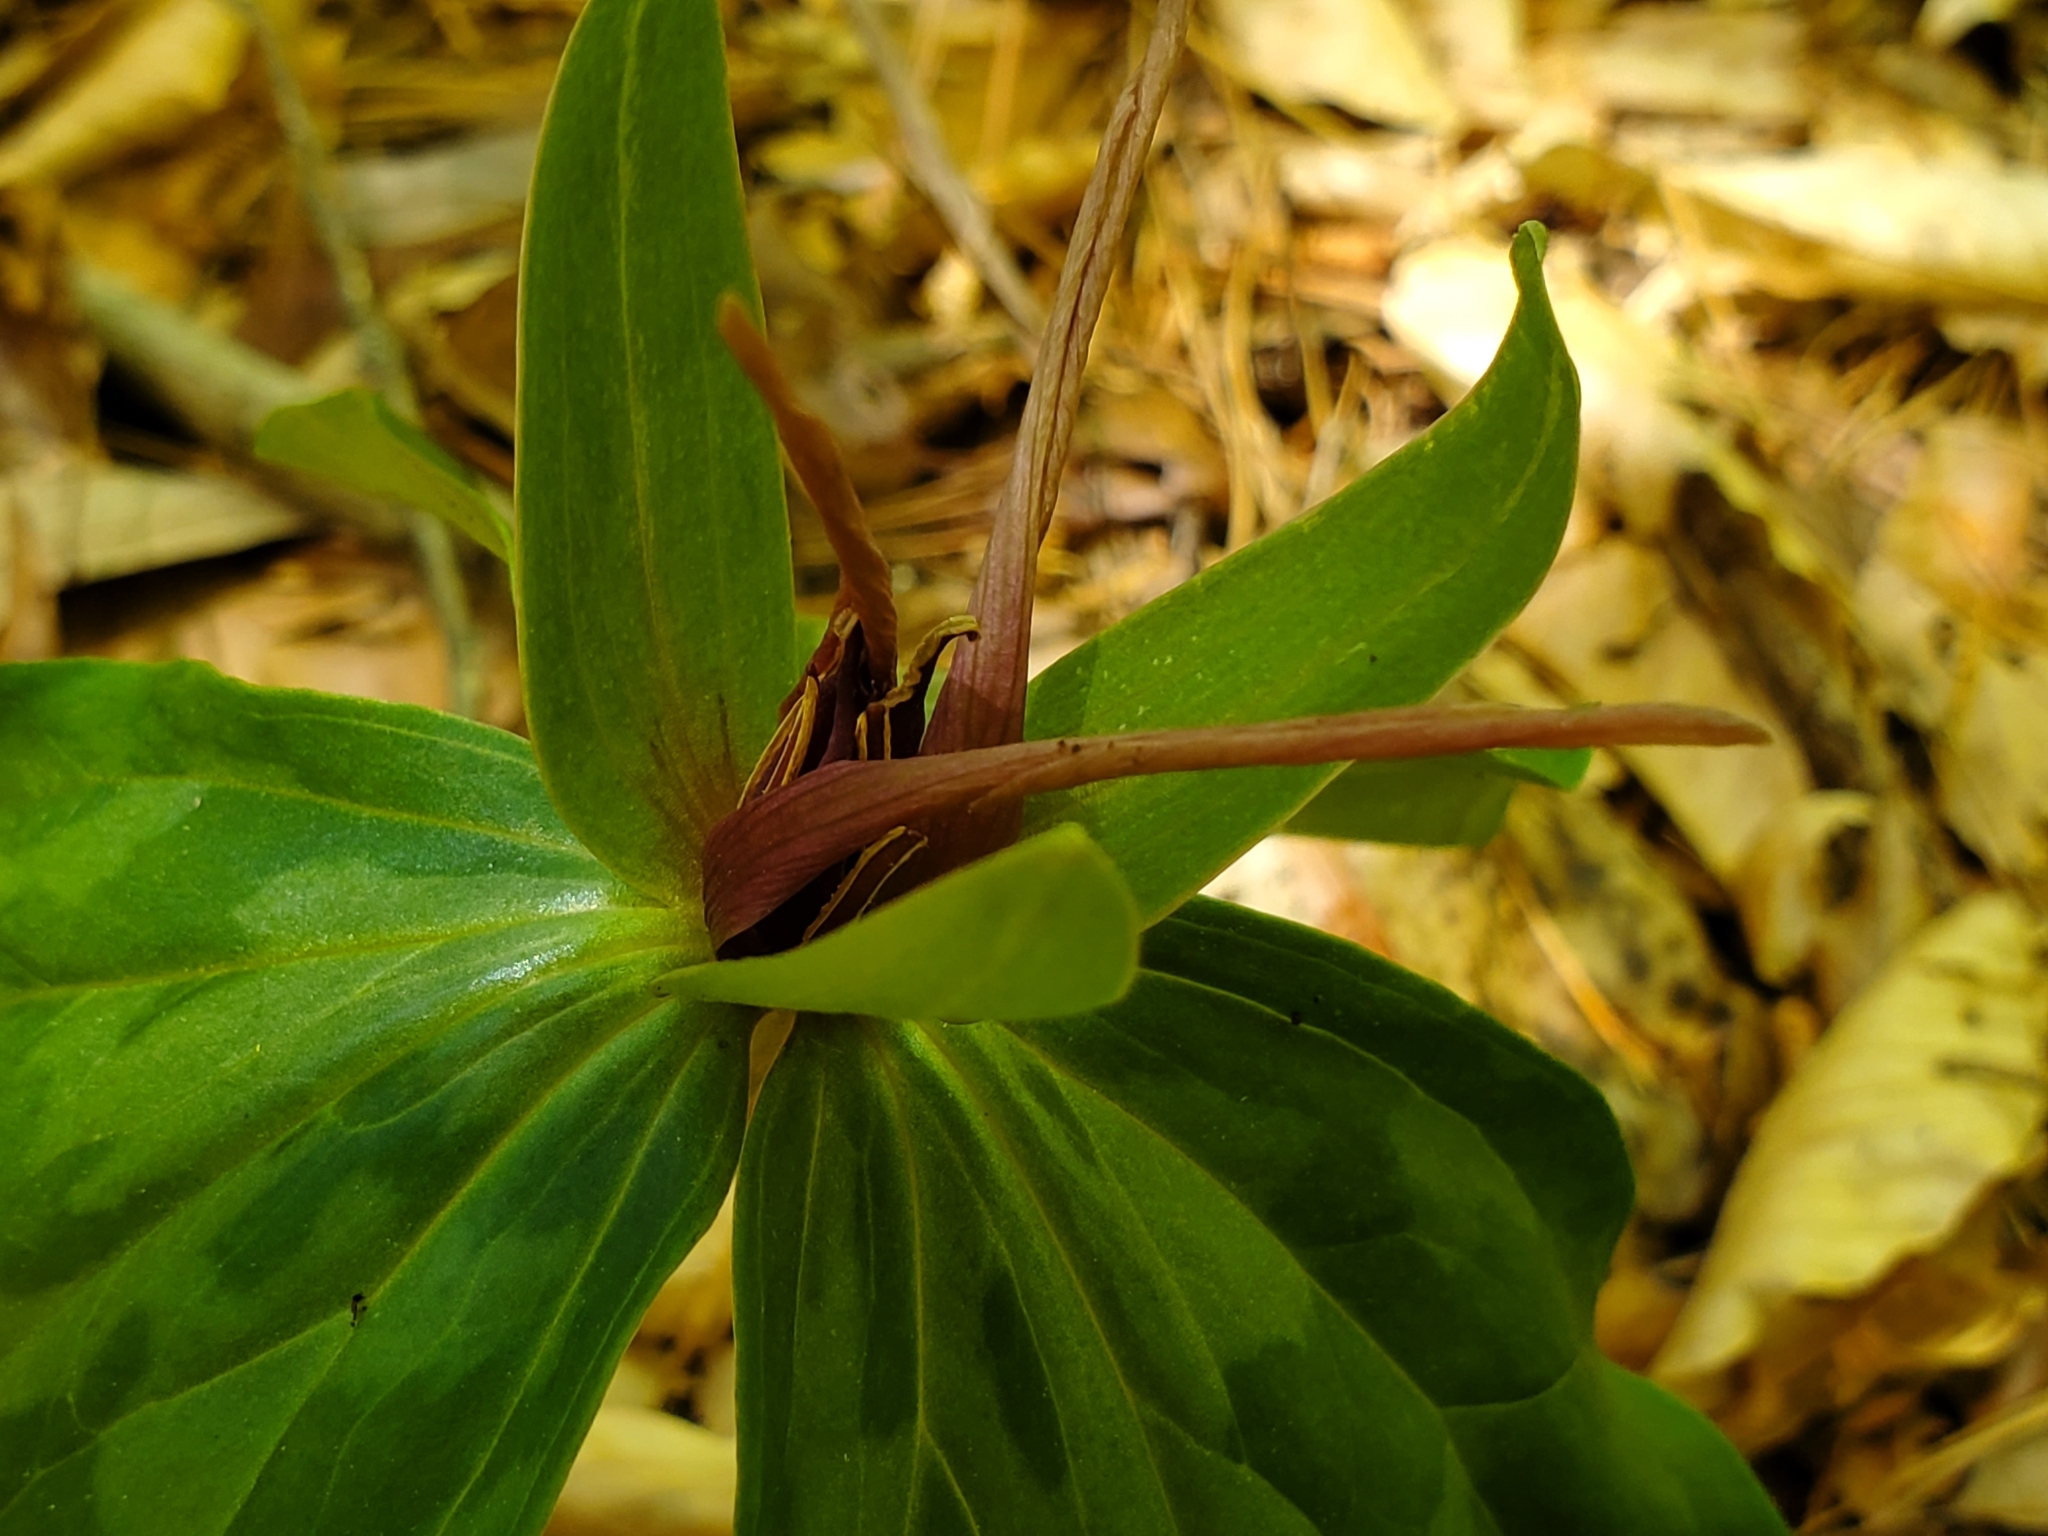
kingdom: Plantae
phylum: Tracheophyta
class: Liliopsida
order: Liliales
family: Melanthiaceae
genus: Trillium
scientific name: Trillium cuneatum
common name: Cuneate trillium
